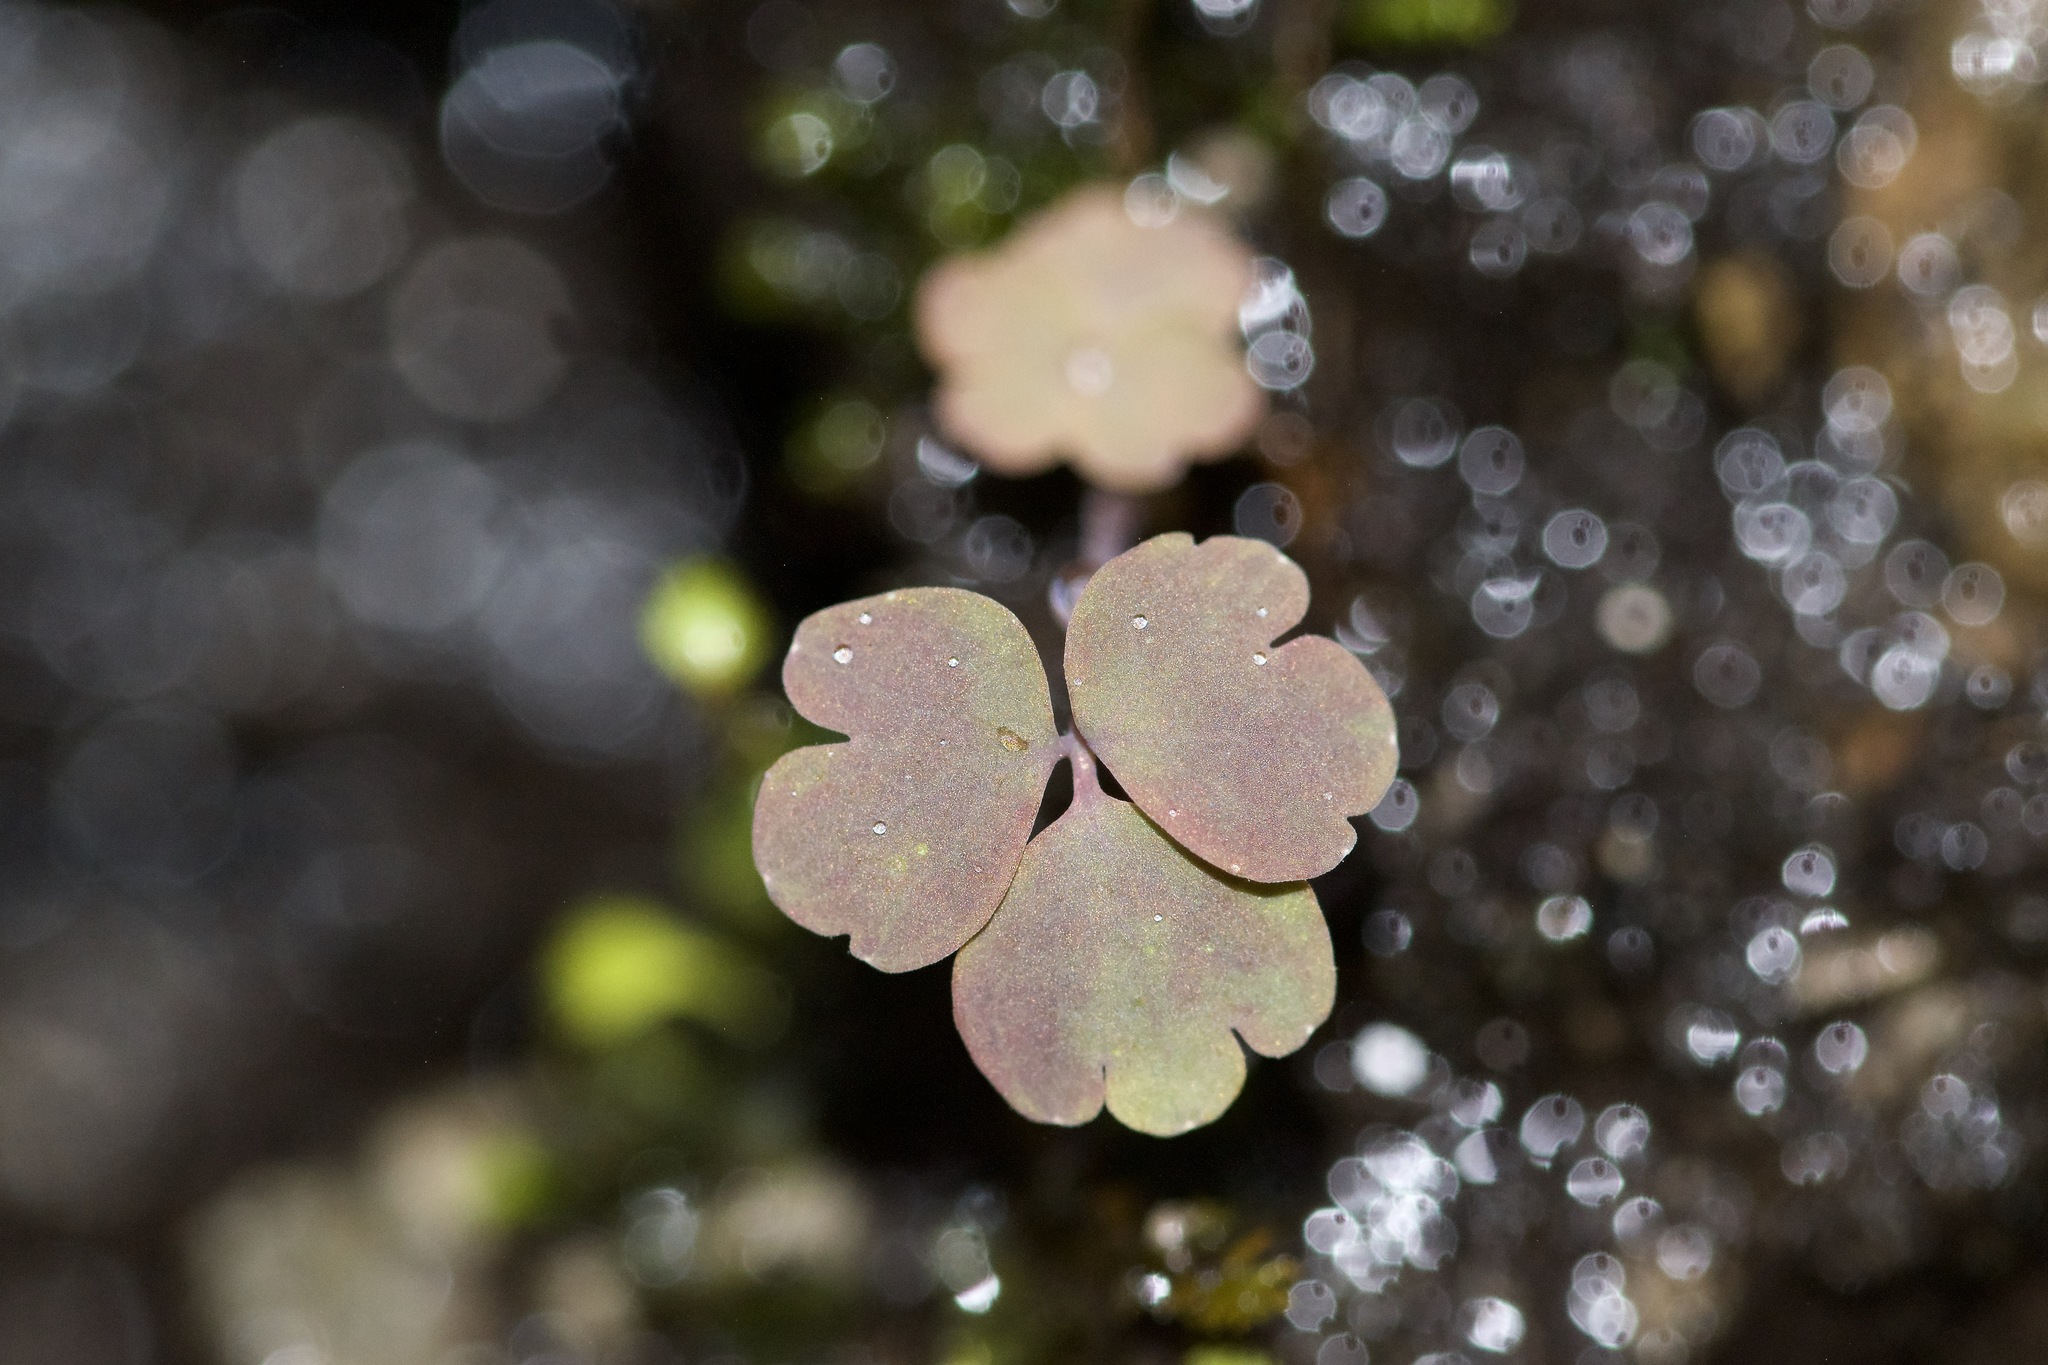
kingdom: Plantae
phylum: Tracheophyta
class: Magnoliopsida
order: Ranunculales
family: Ranunculaceae
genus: Aquilegia
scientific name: Aquilegia canadensis
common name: American columbine
